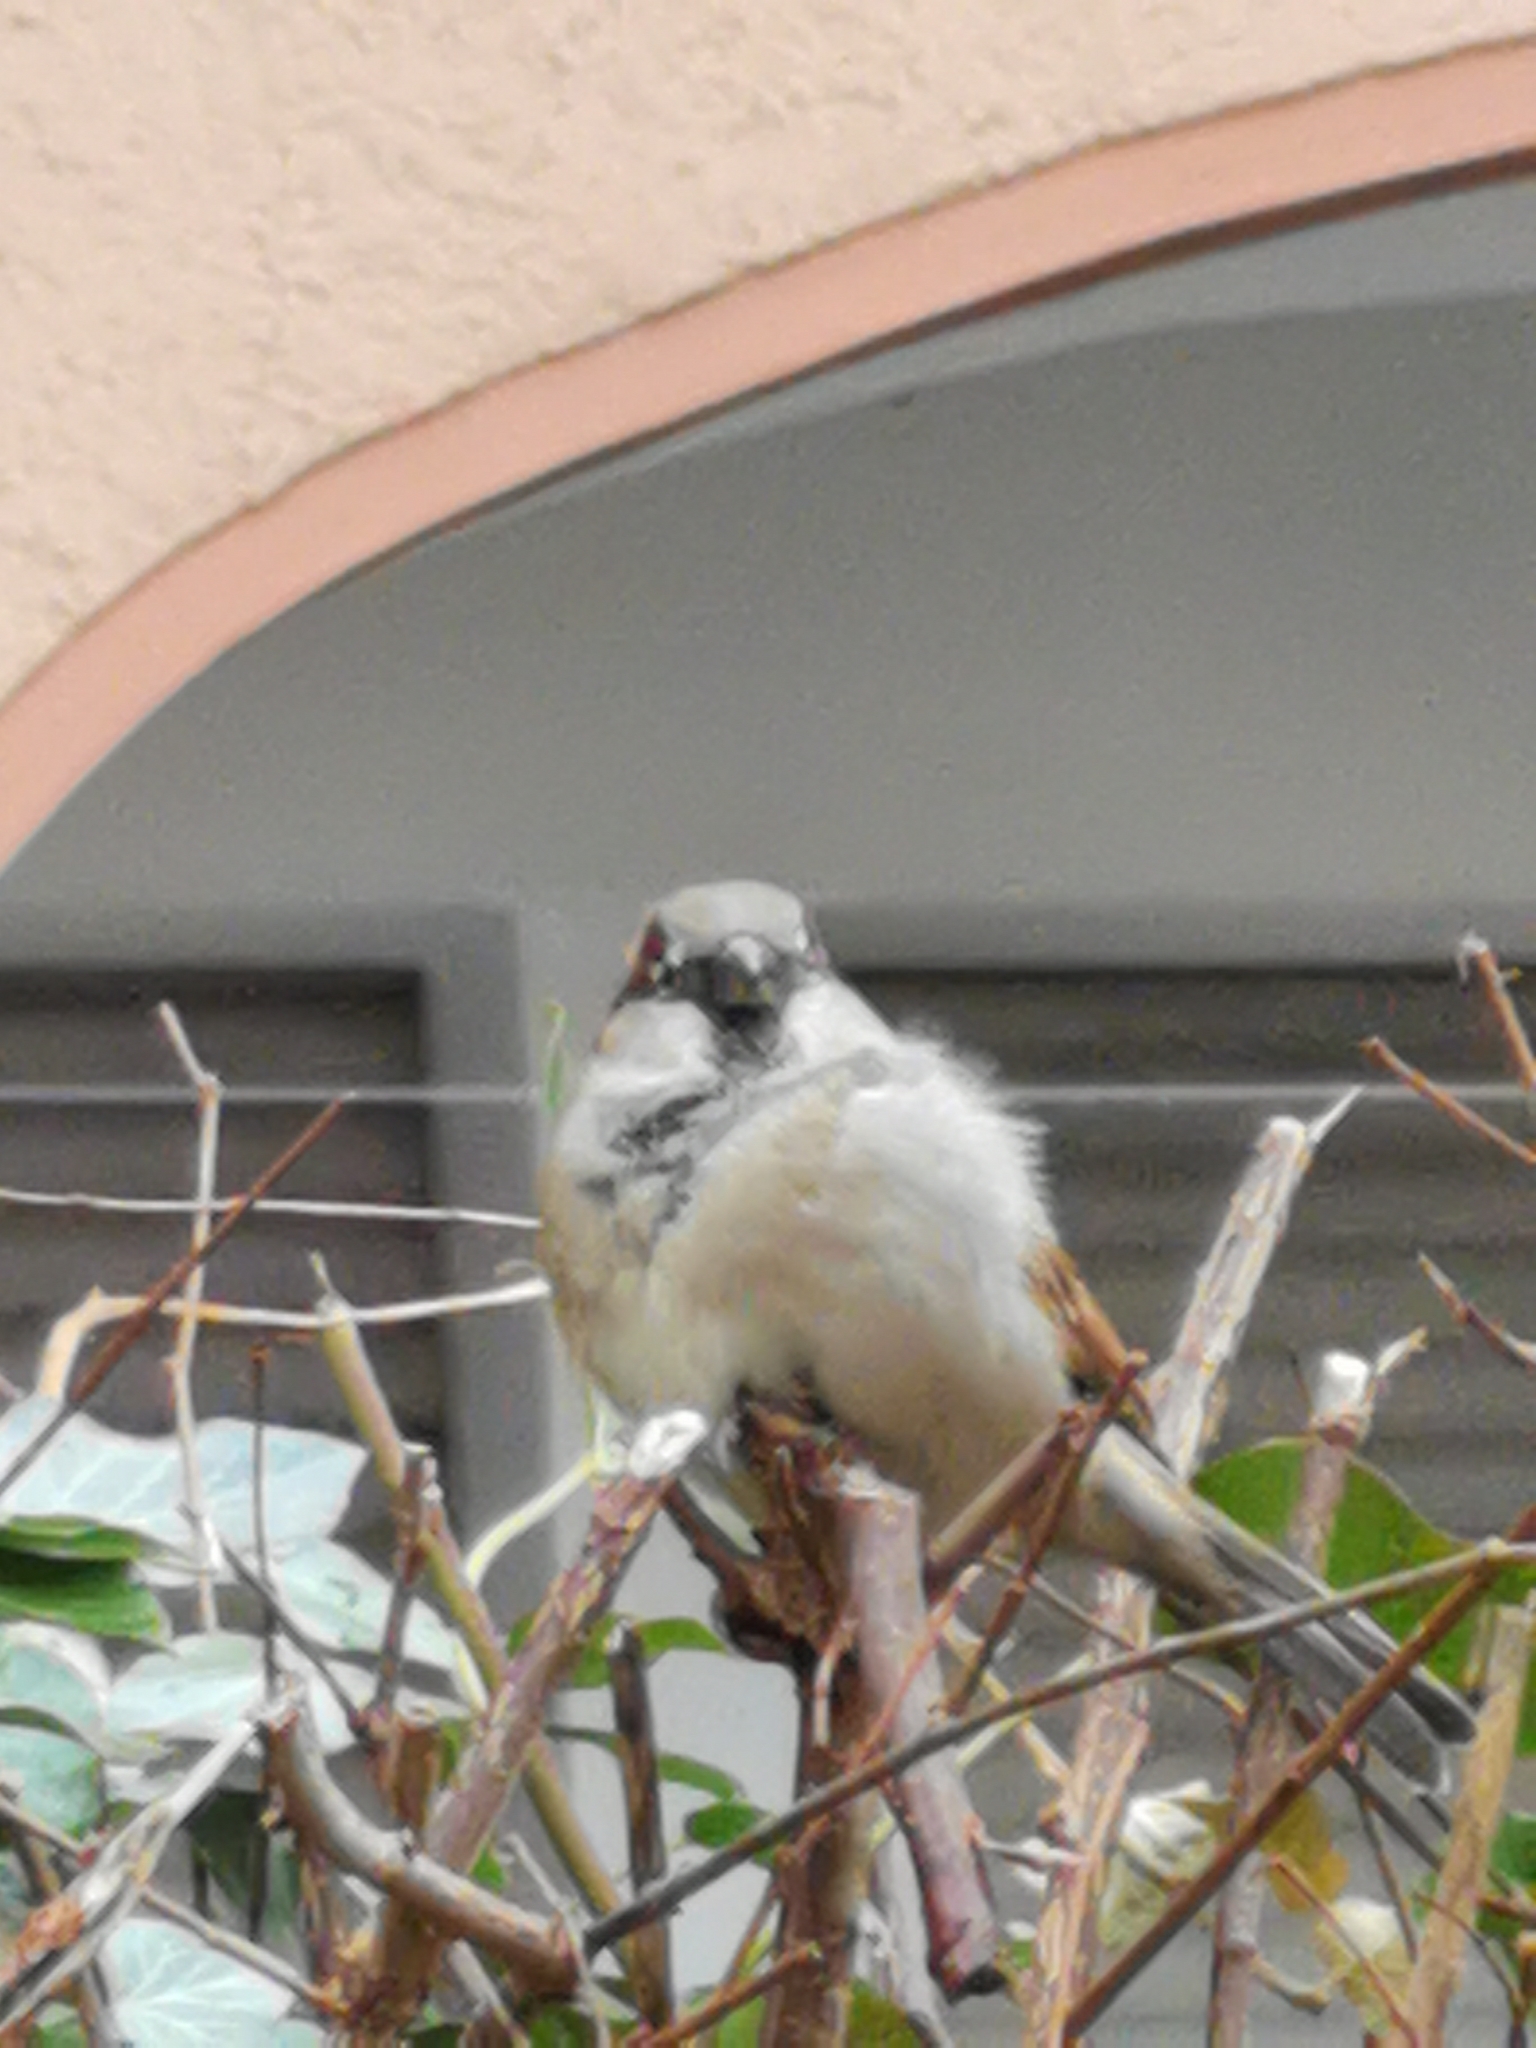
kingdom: Animalia
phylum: Chordata
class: Aves
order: Passeriformes
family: Passeridae
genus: Passer
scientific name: Passer domesticus
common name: House sparrow
